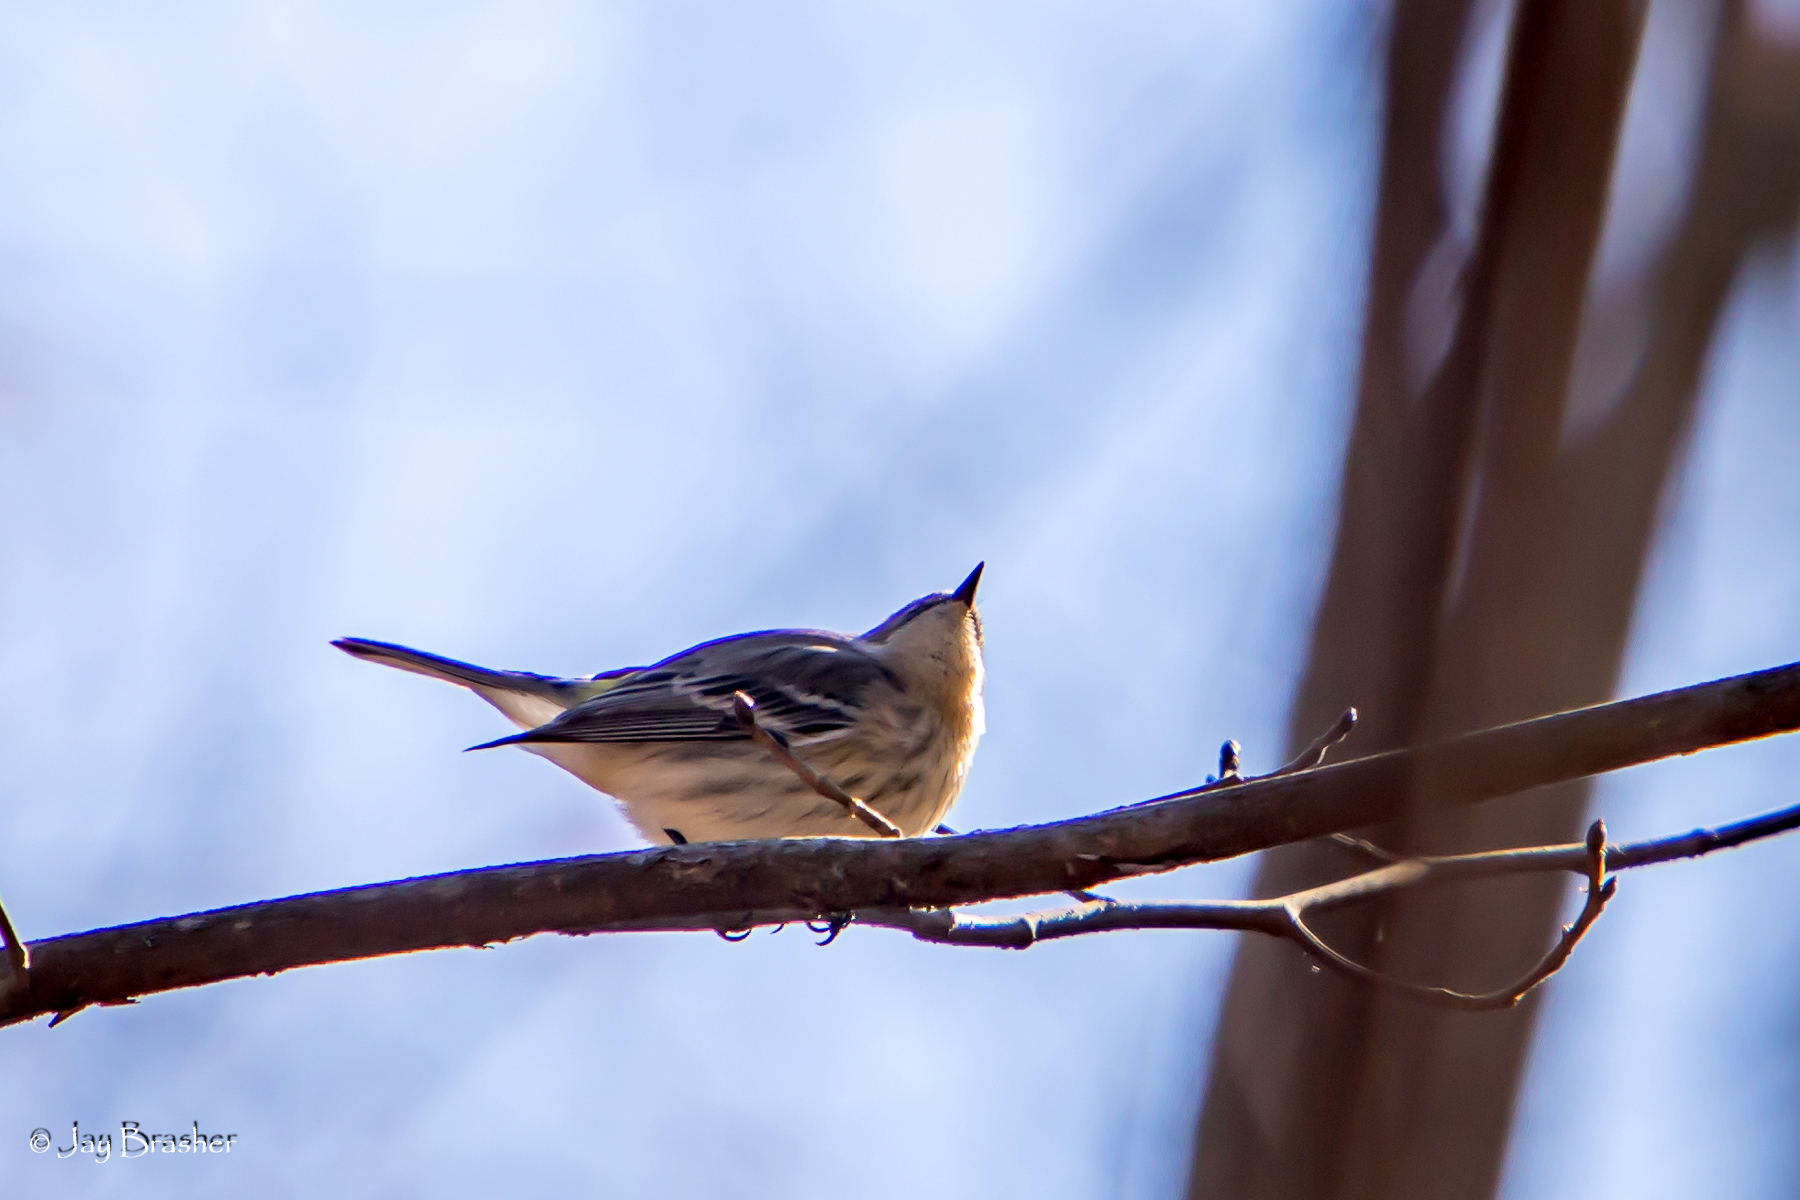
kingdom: Animalia
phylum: Chordata
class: Aves
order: Passeriformes
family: Parulidae
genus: Setophaga
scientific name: Setophaga coronata
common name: Myrtle warbler
